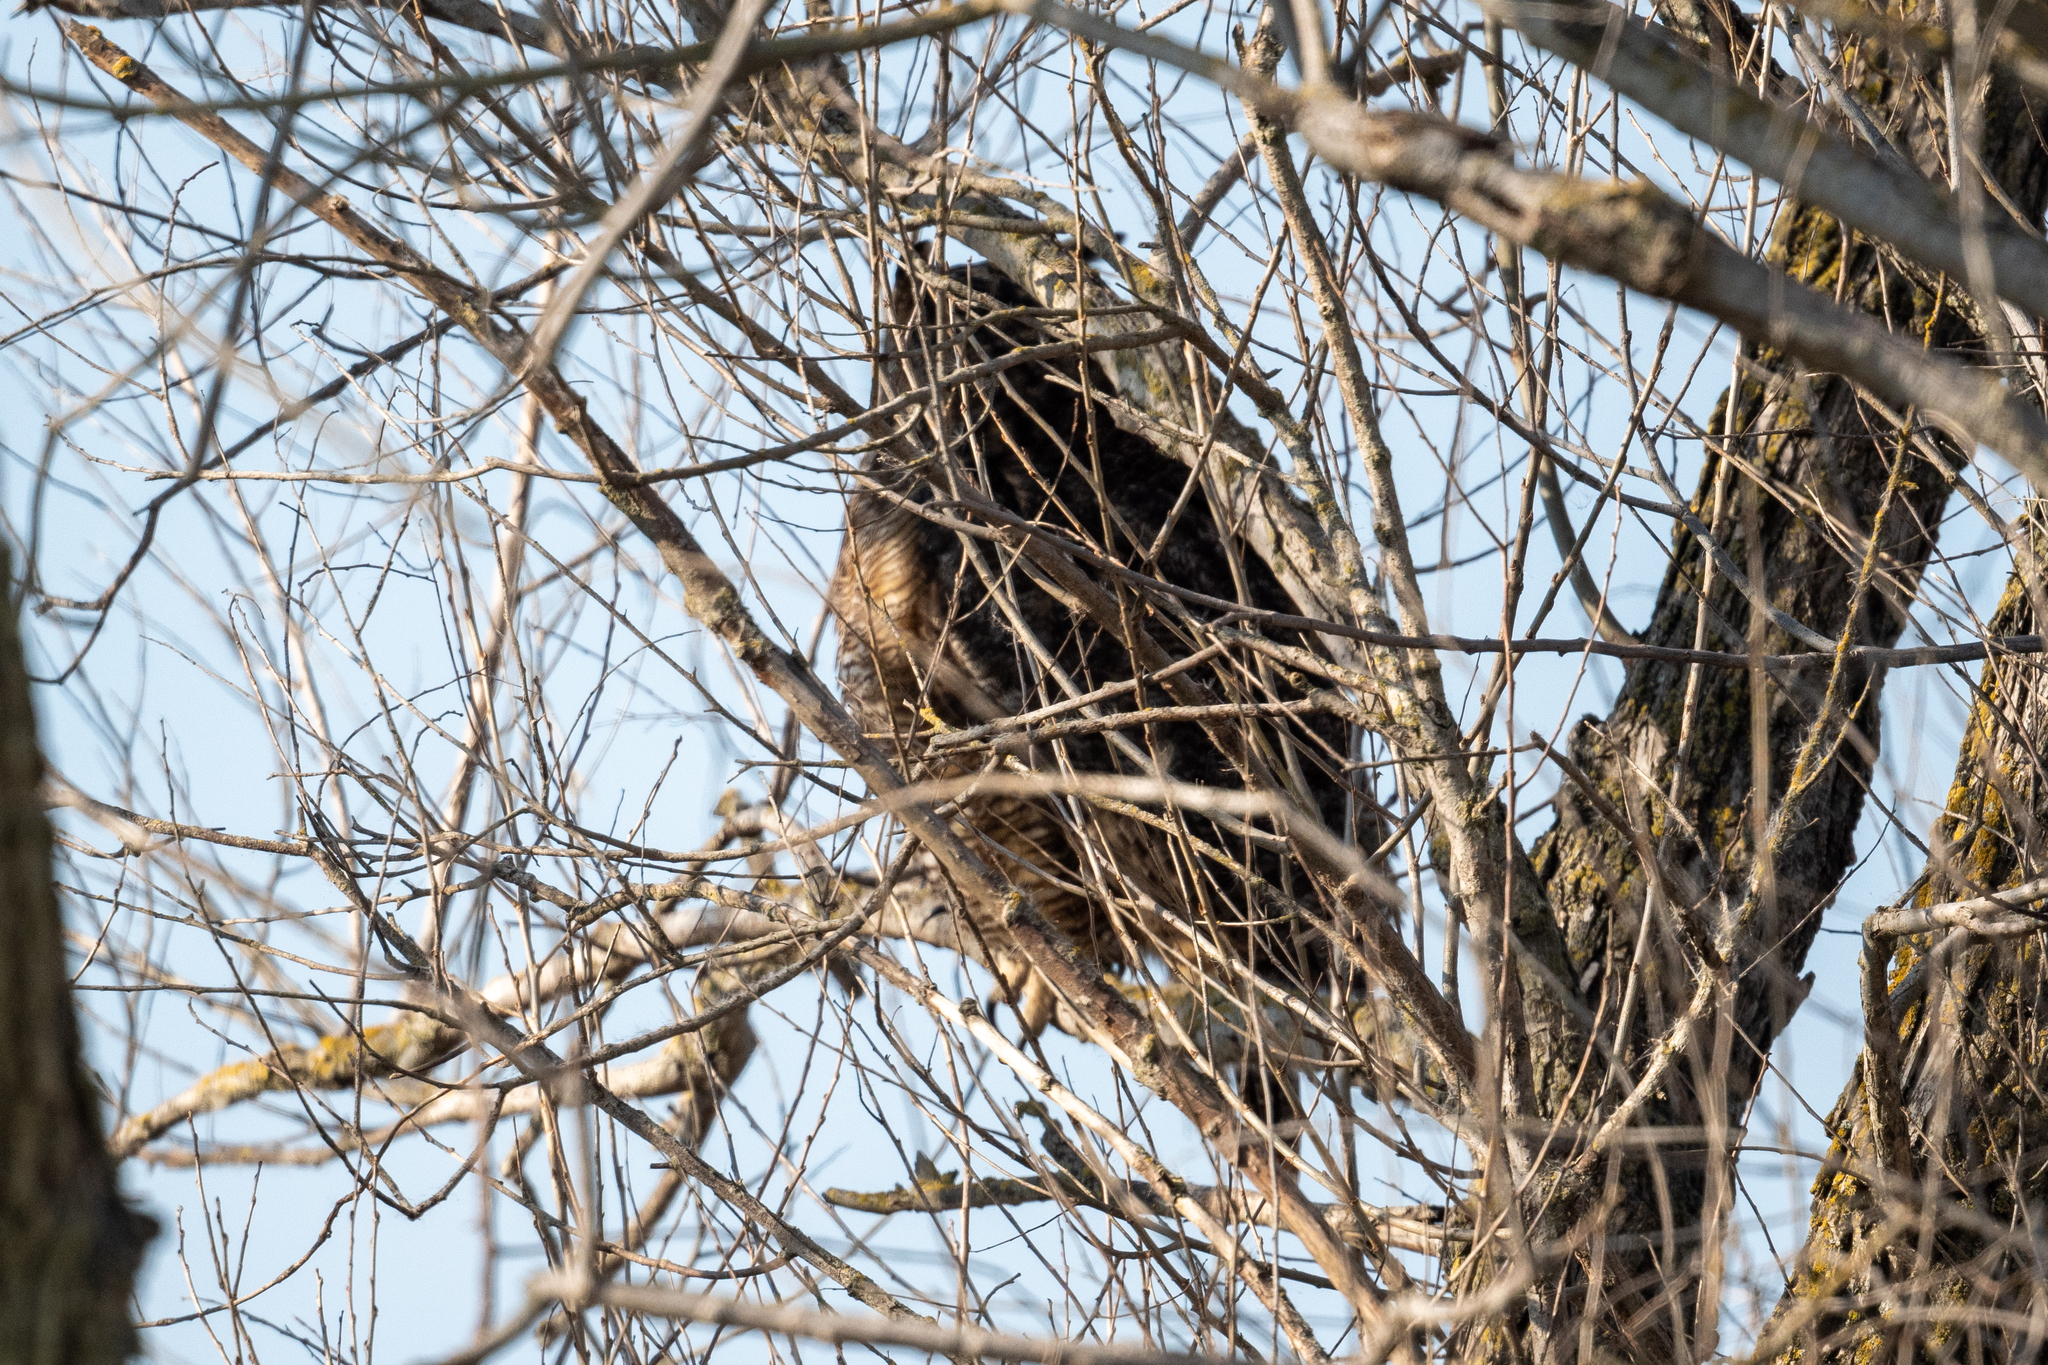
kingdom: Animalia
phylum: Chordata
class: Aves
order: Strigiformes
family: Strigidae
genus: Bubo
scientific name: Bubo virginianus
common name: Great horned owl
